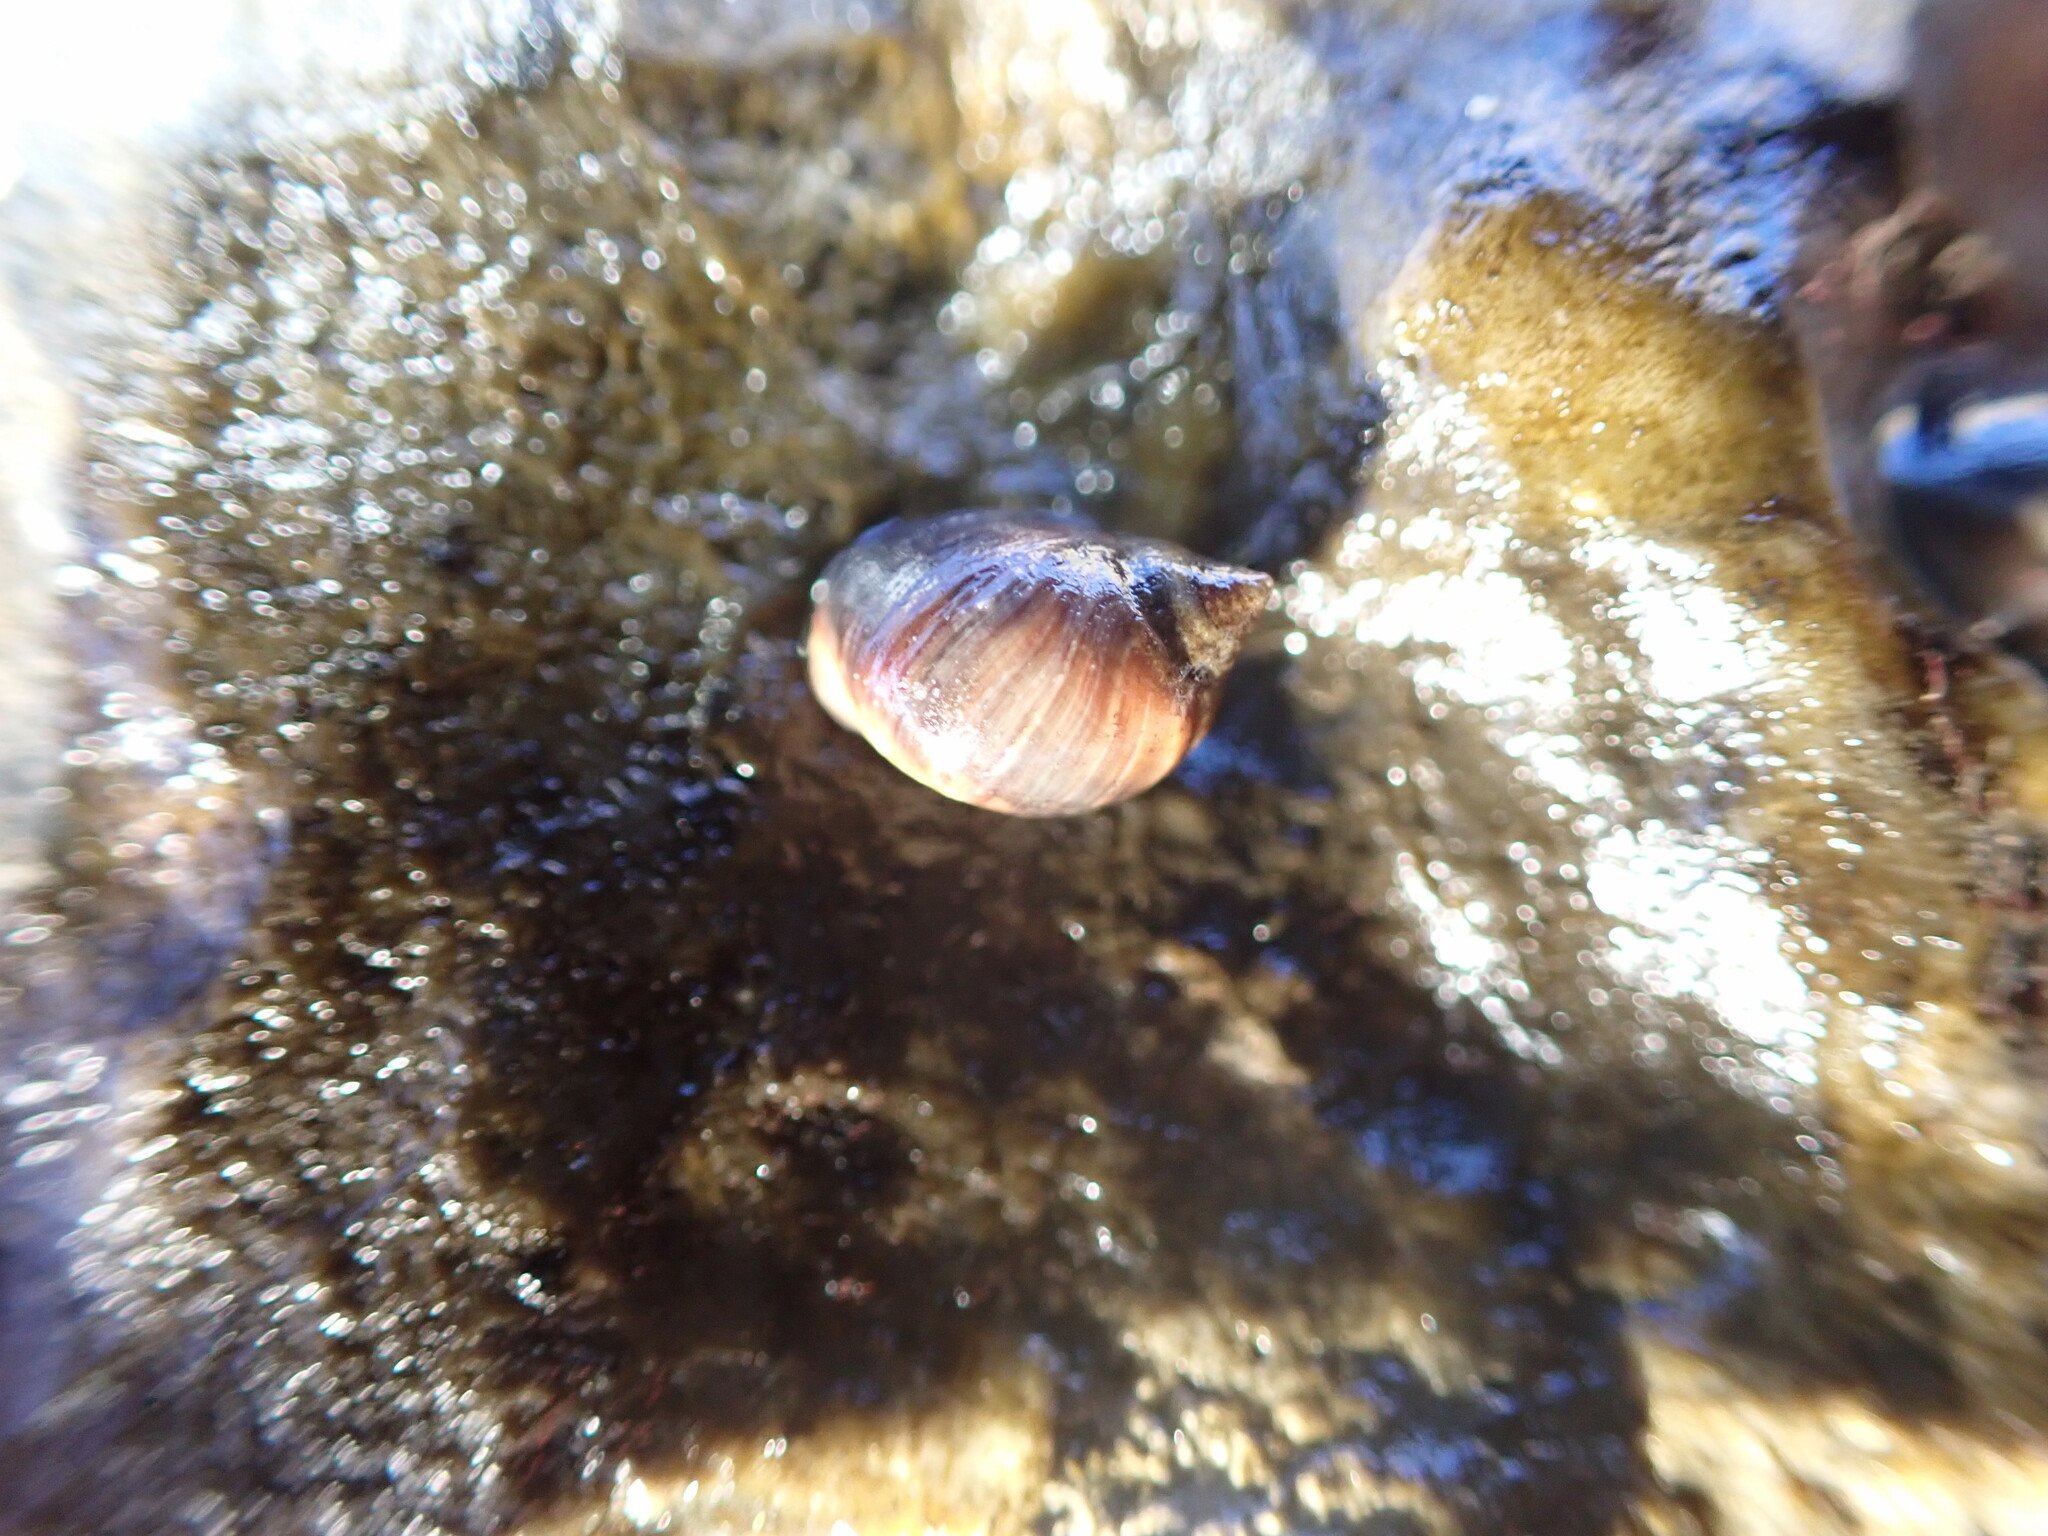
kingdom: Animalia
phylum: Mollusca
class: Gastropoda
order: Littorinimorpha
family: Littorinidae
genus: Melarhaphe
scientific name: Melarhaphe neritoides
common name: Small periwinkle
